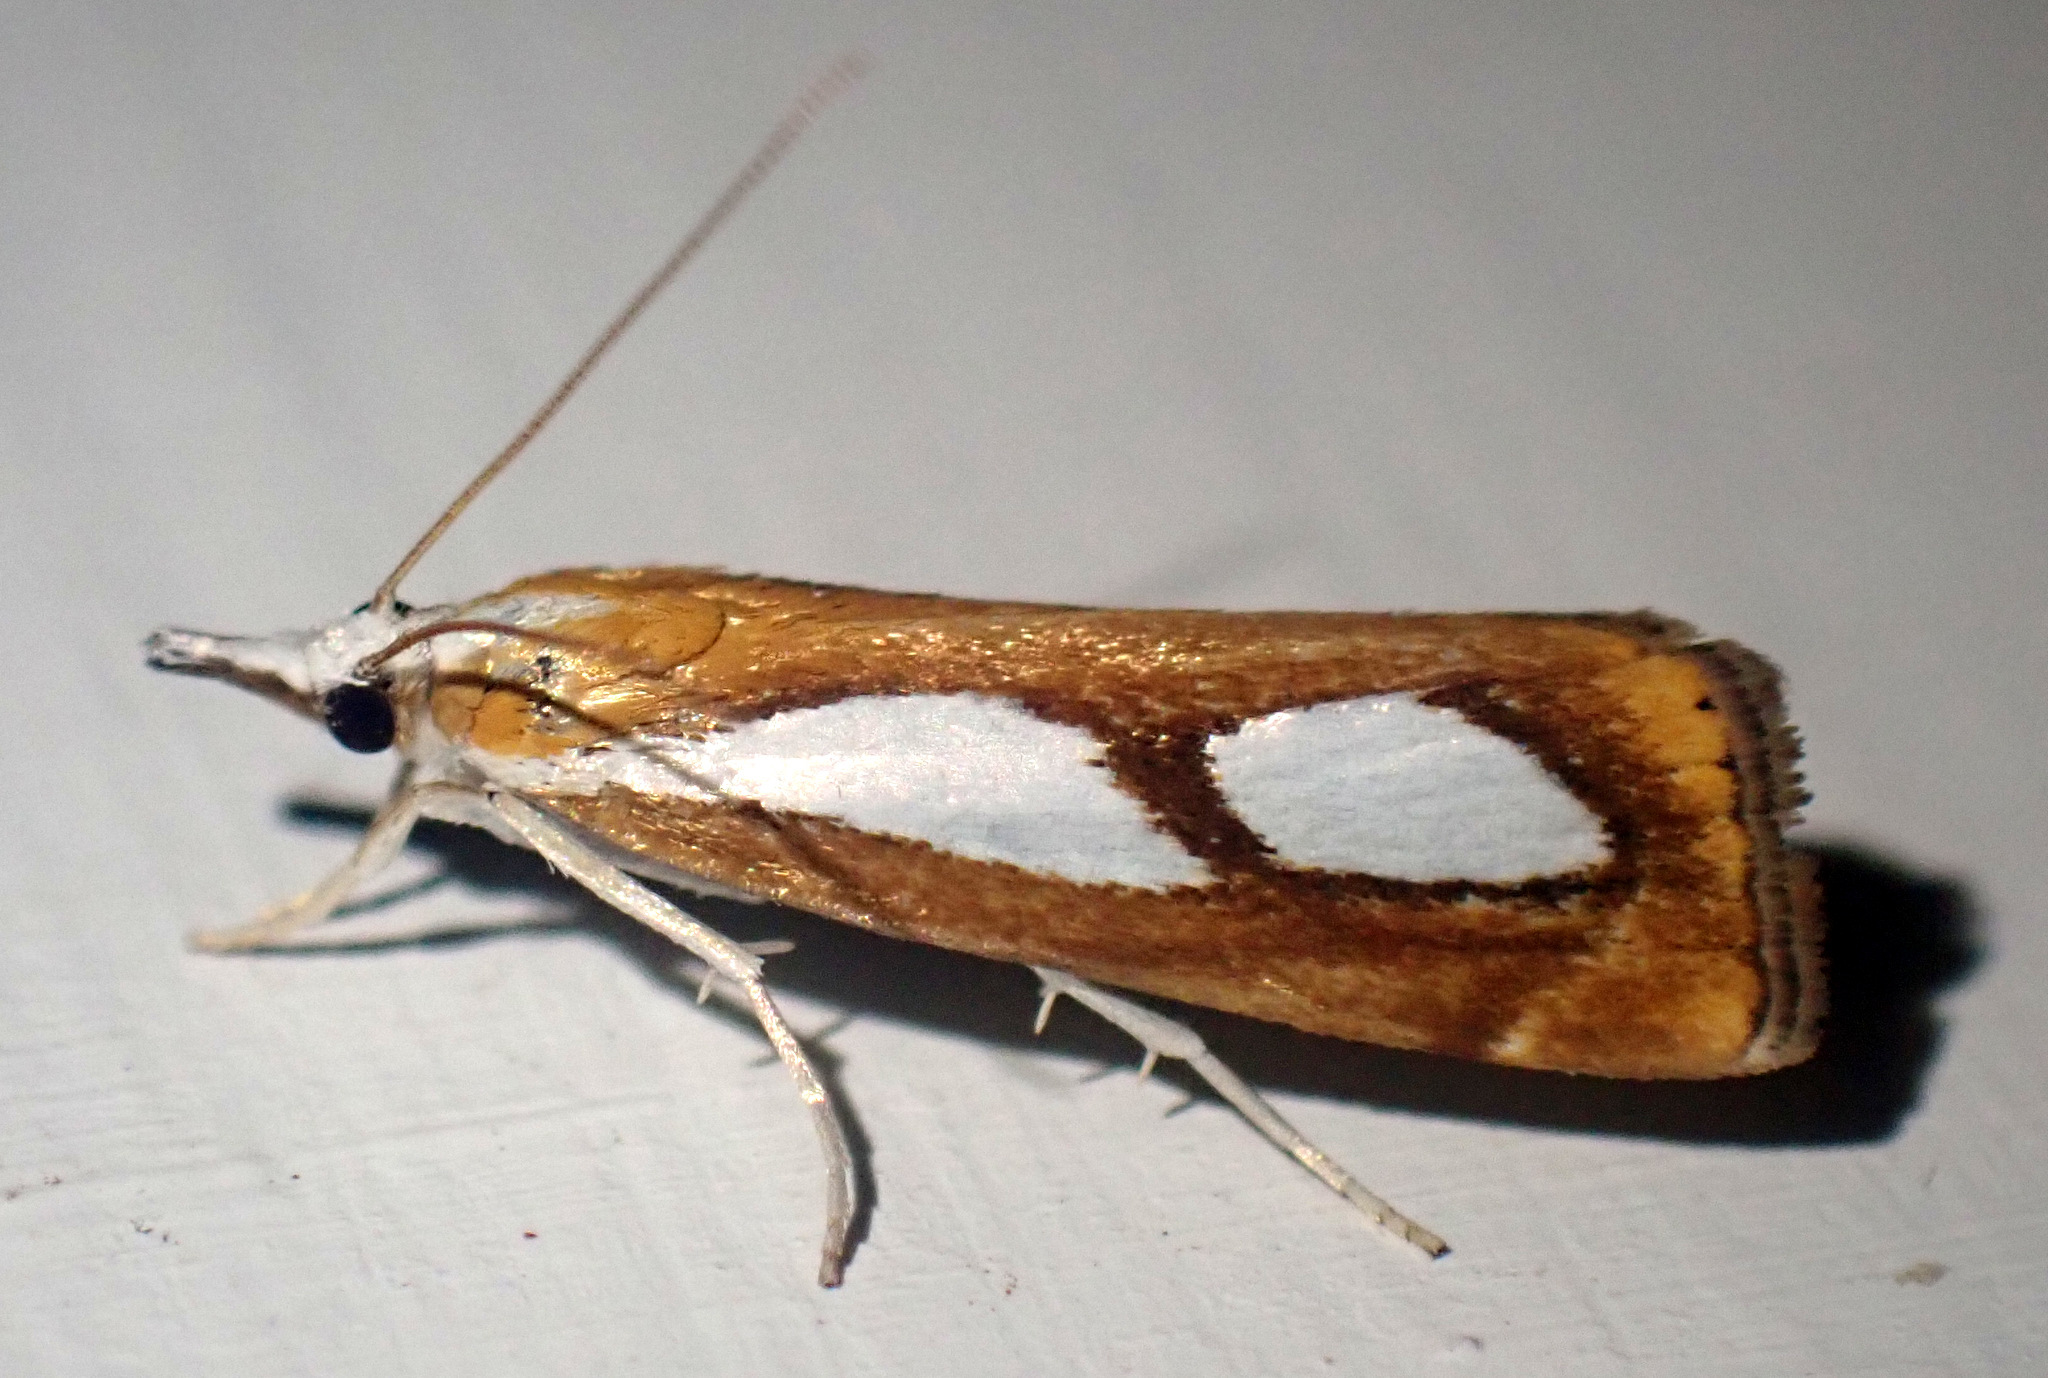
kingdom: Animalia
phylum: Arthropoda
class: Insecta
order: Lepidoptera
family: Crambidae
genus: Catoptria
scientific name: Catoptria pinella
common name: Pearl grass-veneer
